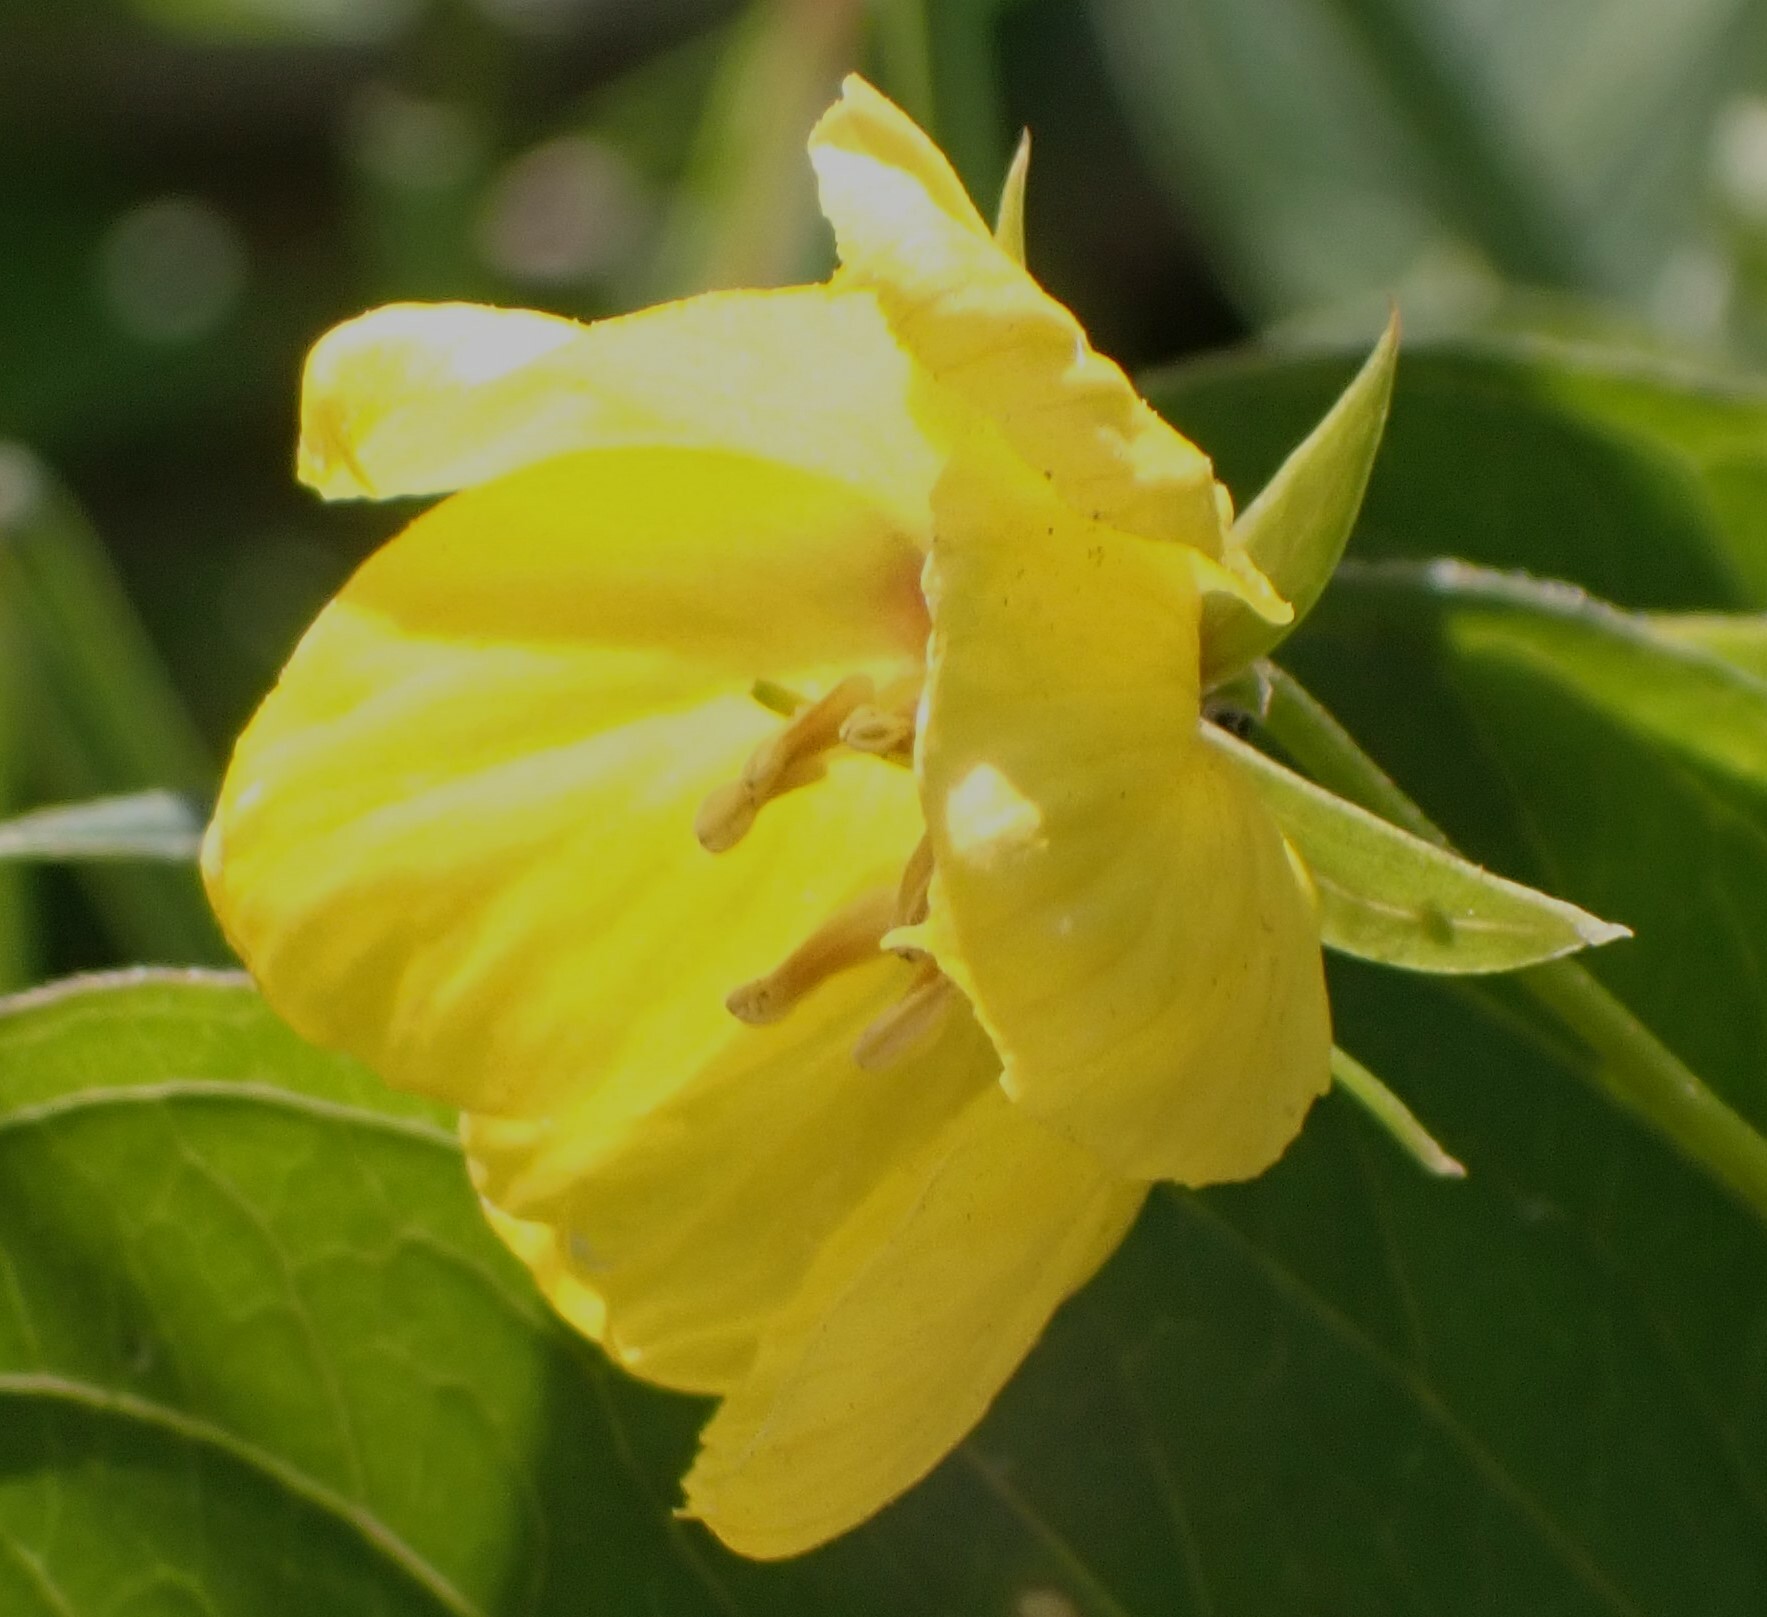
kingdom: Plantae
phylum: Tracheophyta
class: Magnoliopsida
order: Ericales
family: Primulaceae
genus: Lysimachia
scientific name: Lysimachia ciliata
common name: Fringed loosestrife
